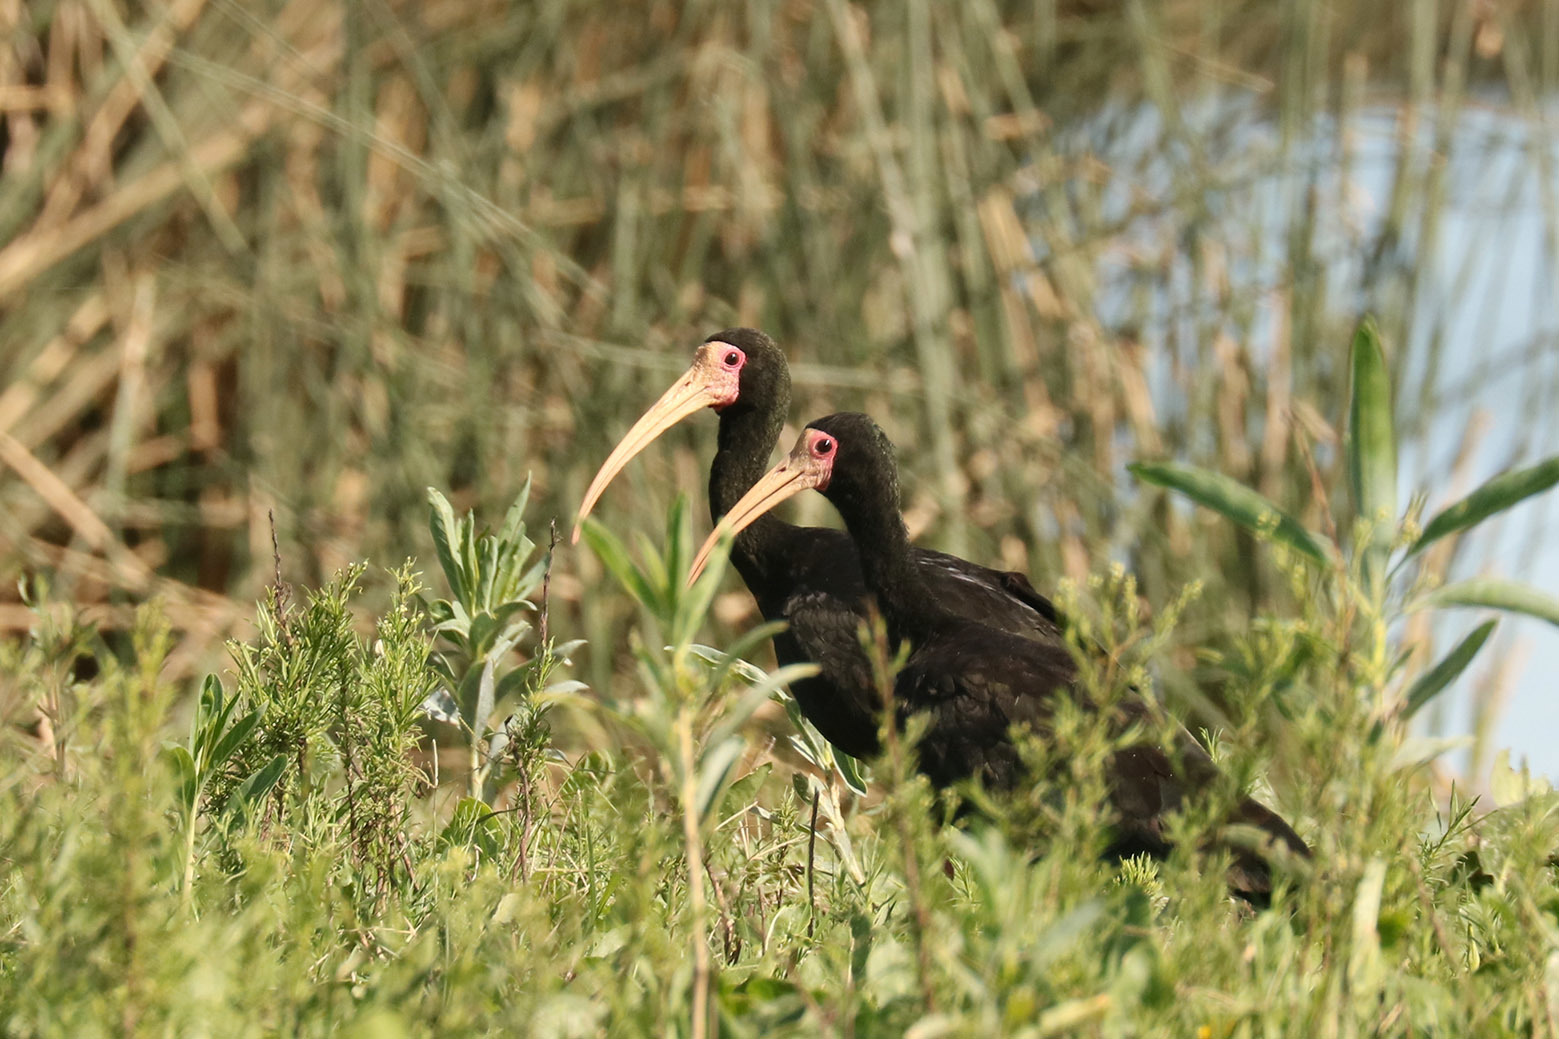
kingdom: Animalia
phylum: Chordata
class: Aves
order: Pelecaniformes
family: Threskiornithidae
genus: Phimosus
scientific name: Phimosus infuscatus
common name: Bare-faced ibis
